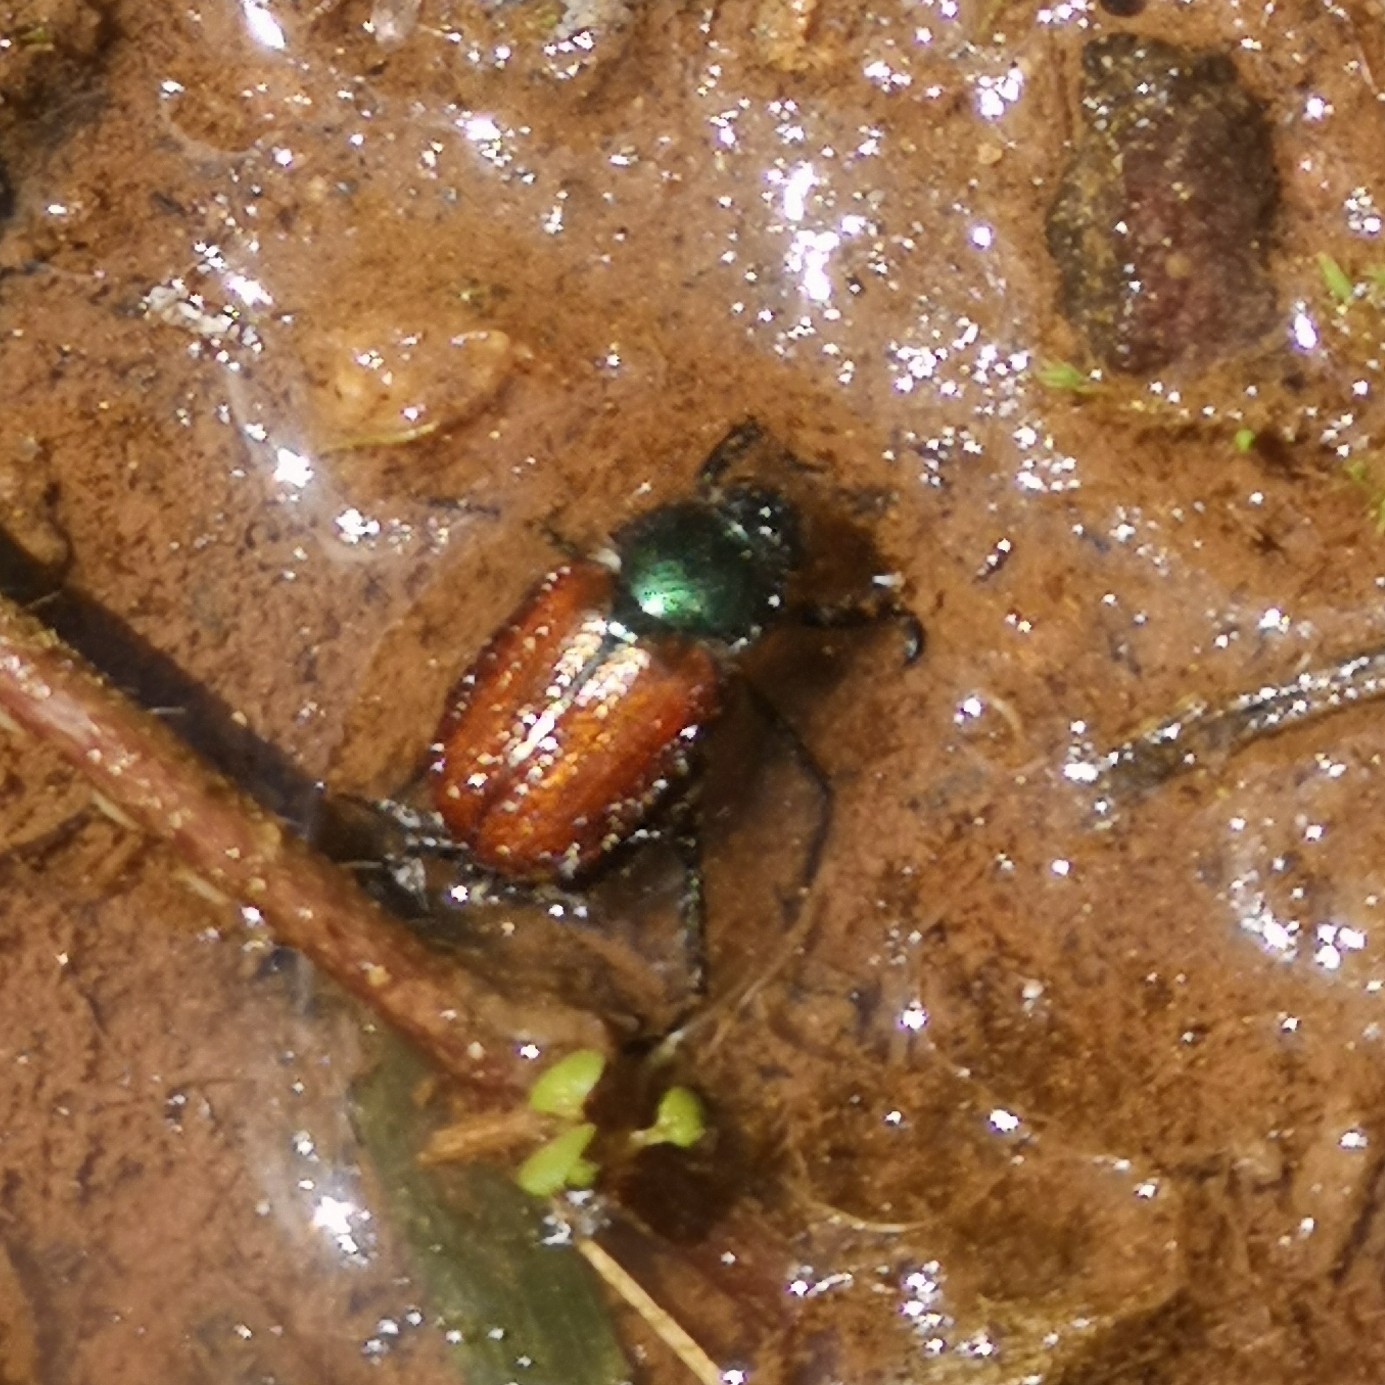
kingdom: Animalia
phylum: Arthropoda
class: Insecta
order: Coleoptera
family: Scarabaeidae
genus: Phyllopertha
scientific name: Phyllopertha horticola
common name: Garden chafer
